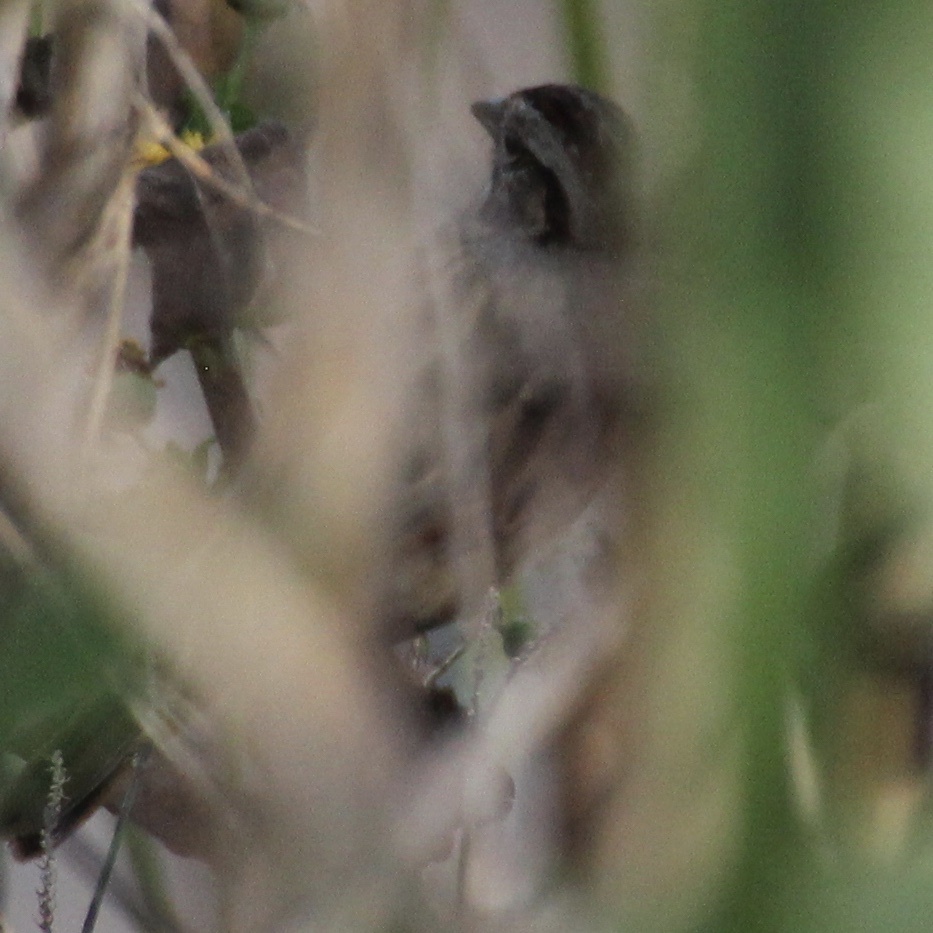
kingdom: Animalia
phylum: Chordata
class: Aves
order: Passeriformes
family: Passerellidae
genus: Melospiza
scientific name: Melospiza georgiana
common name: Swamp sparrow
